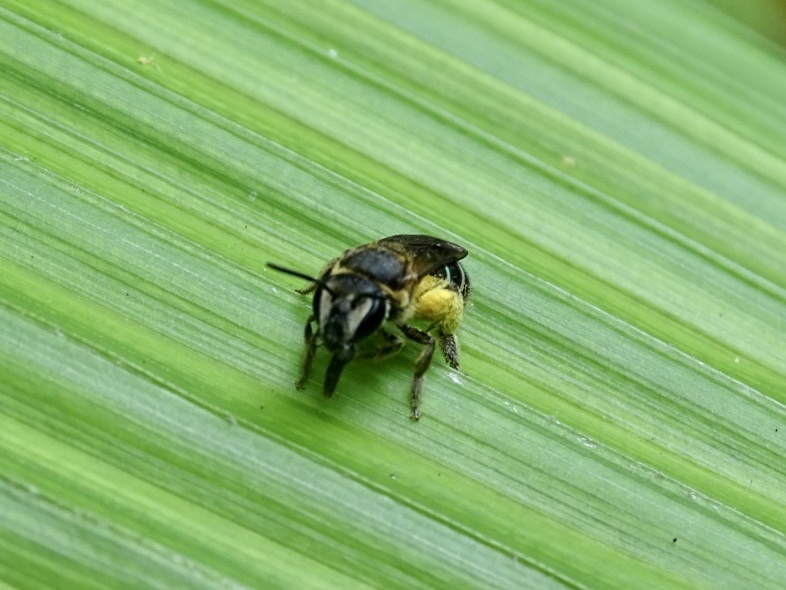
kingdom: Animalia
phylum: Arthropoda
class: Insecta
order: Hymenoptera
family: Halictidae
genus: Nomia
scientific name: Nomia strigata
